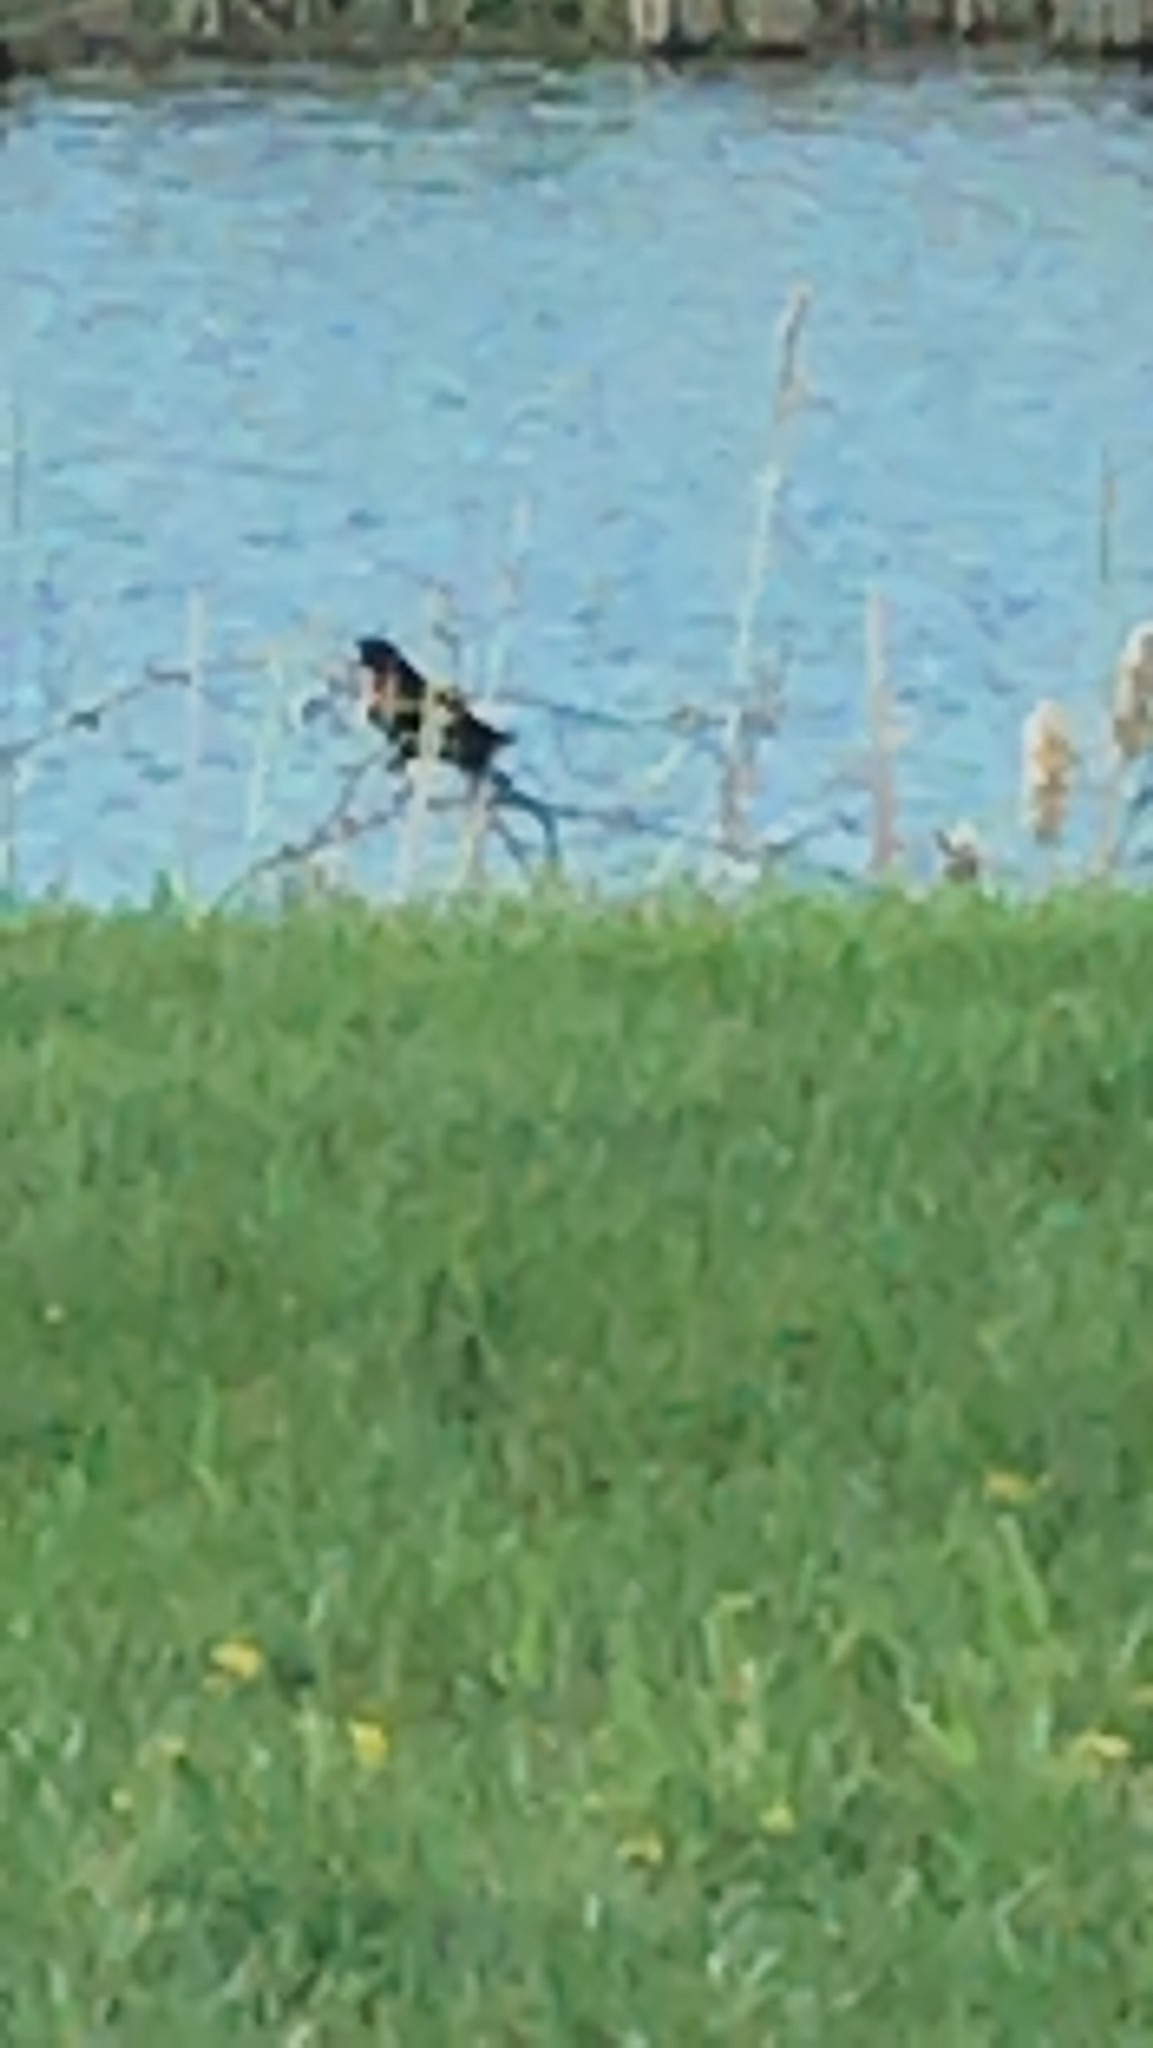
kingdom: Animalia
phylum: Chordata
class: Aves
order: Passeriformes
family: Icteridae
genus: Agelaius
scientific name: Agelaius phoeniceus
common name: Red-winged blackbird
